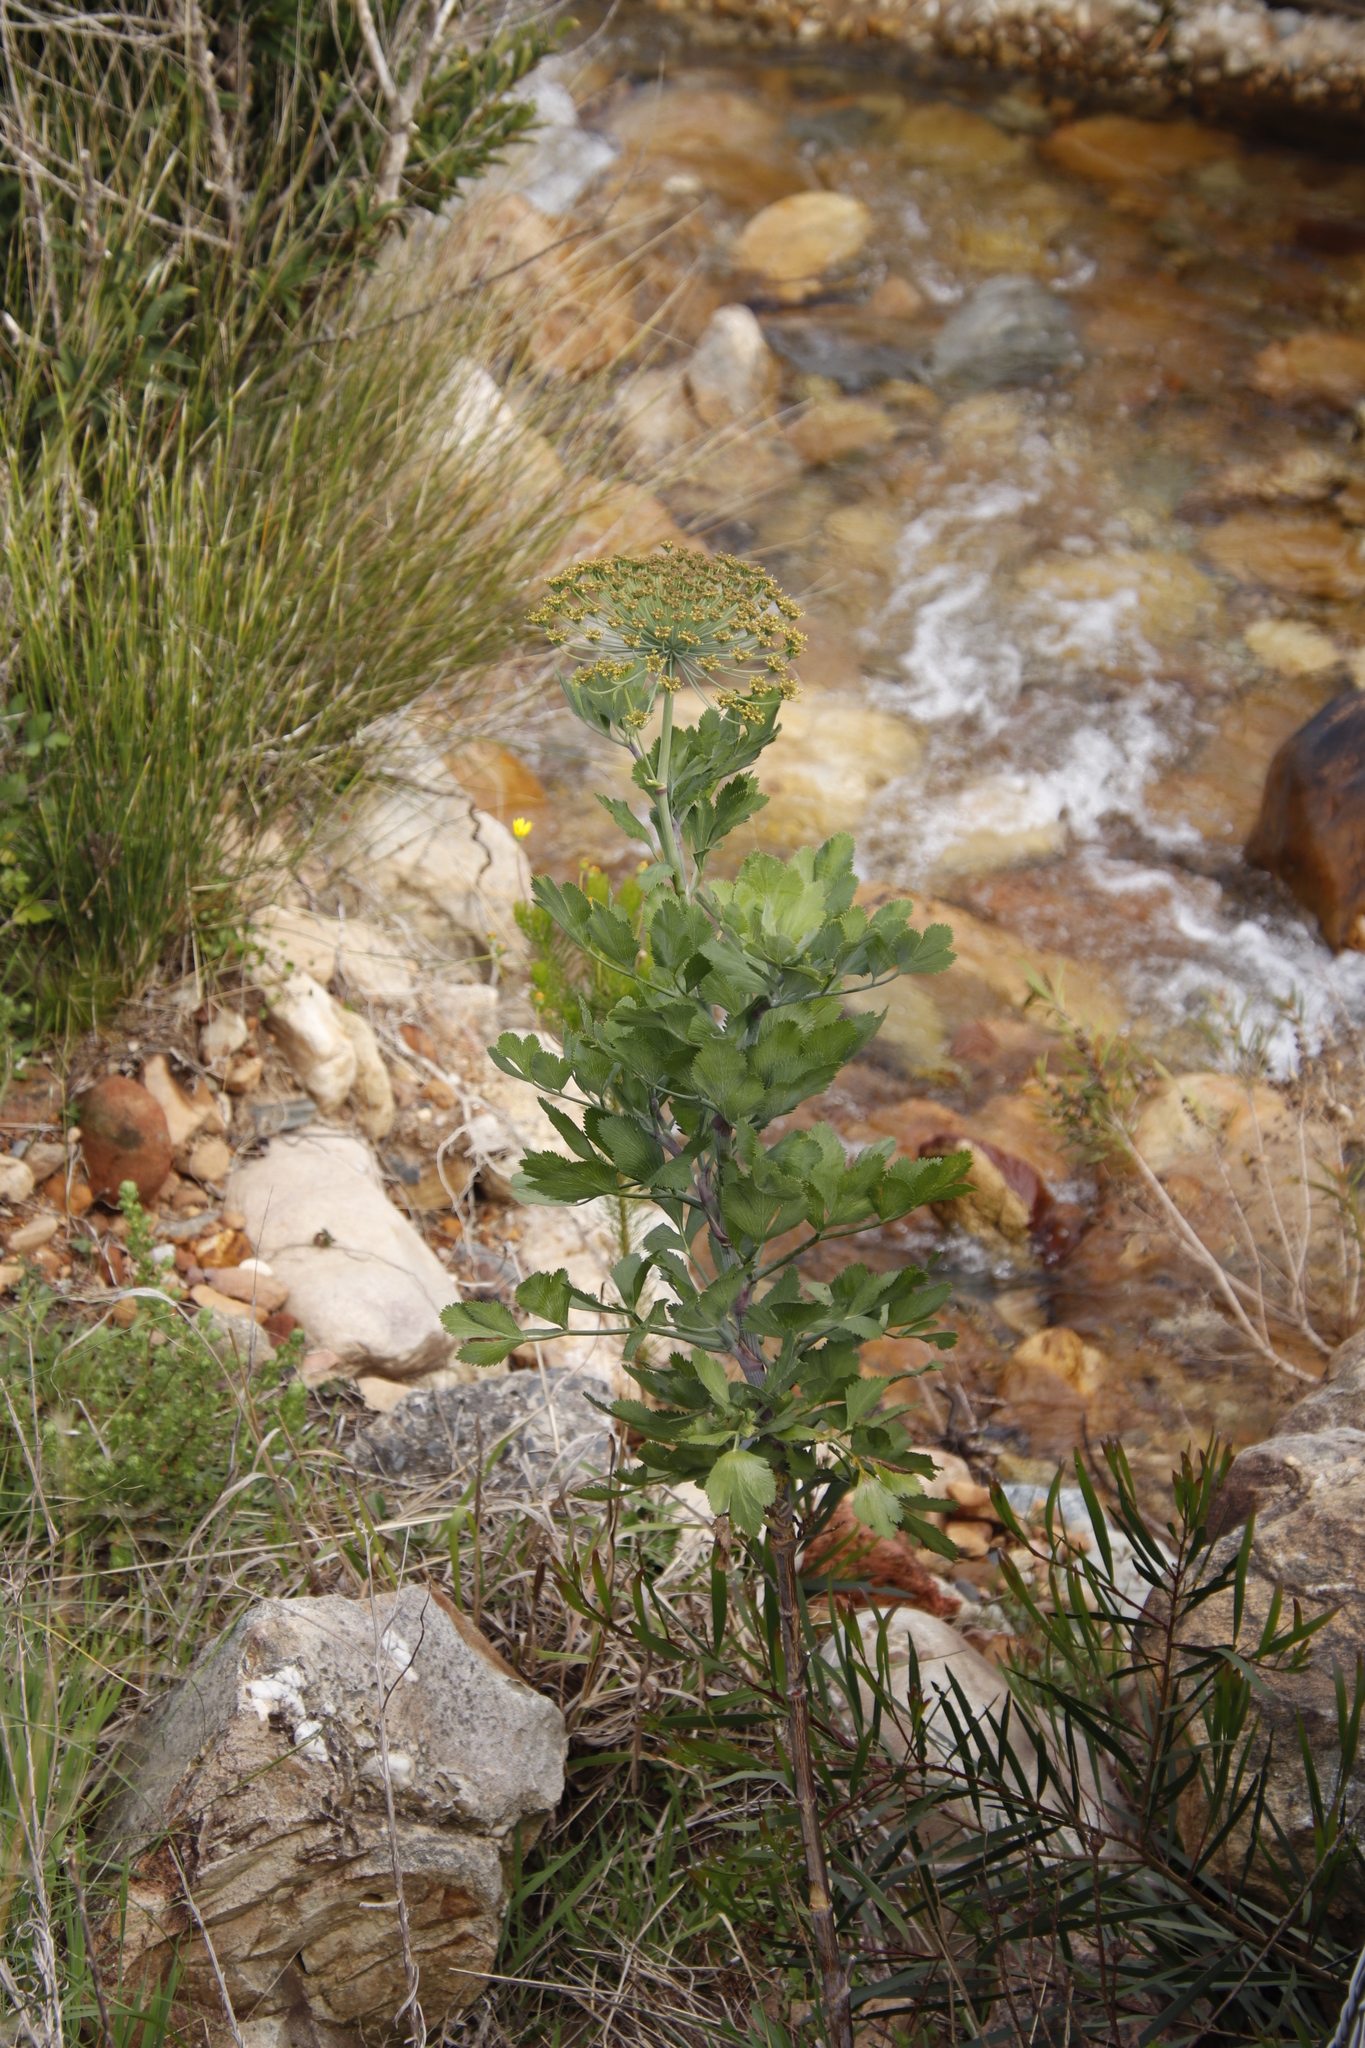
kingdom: Plantae
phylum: Tracheophyta
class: Magnoliopsida
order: Apiales
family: Apiaceae
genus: Notobubon
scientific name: Notobubon galbanum
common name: Blisterbush
